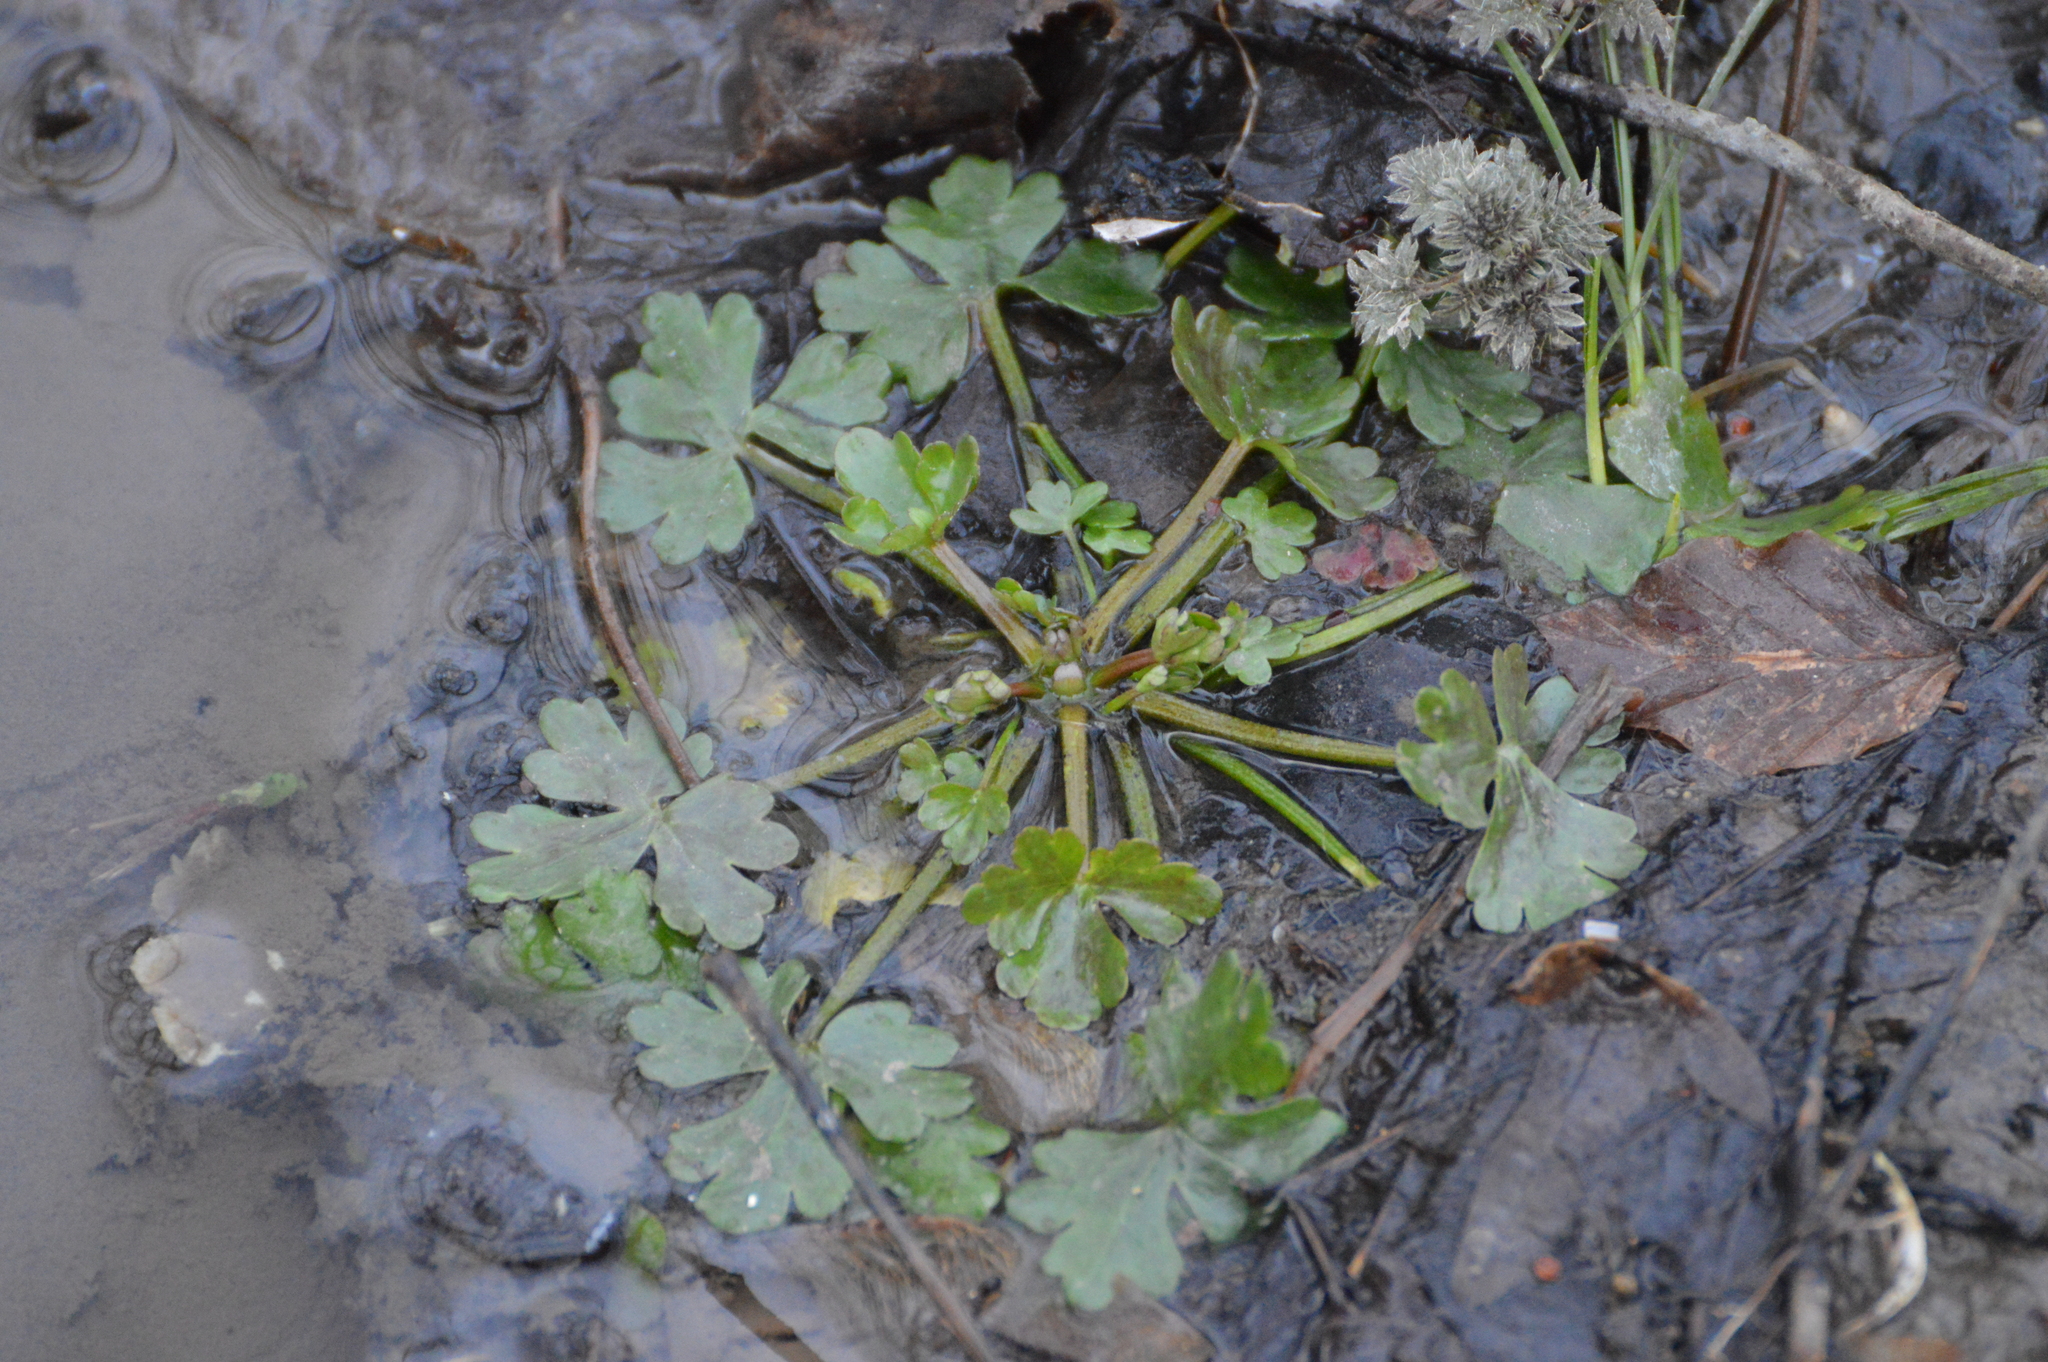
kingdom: Plantae
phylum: Tracheophyta
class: Magnoliopsida
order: Ranunculales
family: Ranunculaceae
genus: Ranunculus
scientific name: Ranunculus sceleratus
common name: Celery-leaved buttercup
